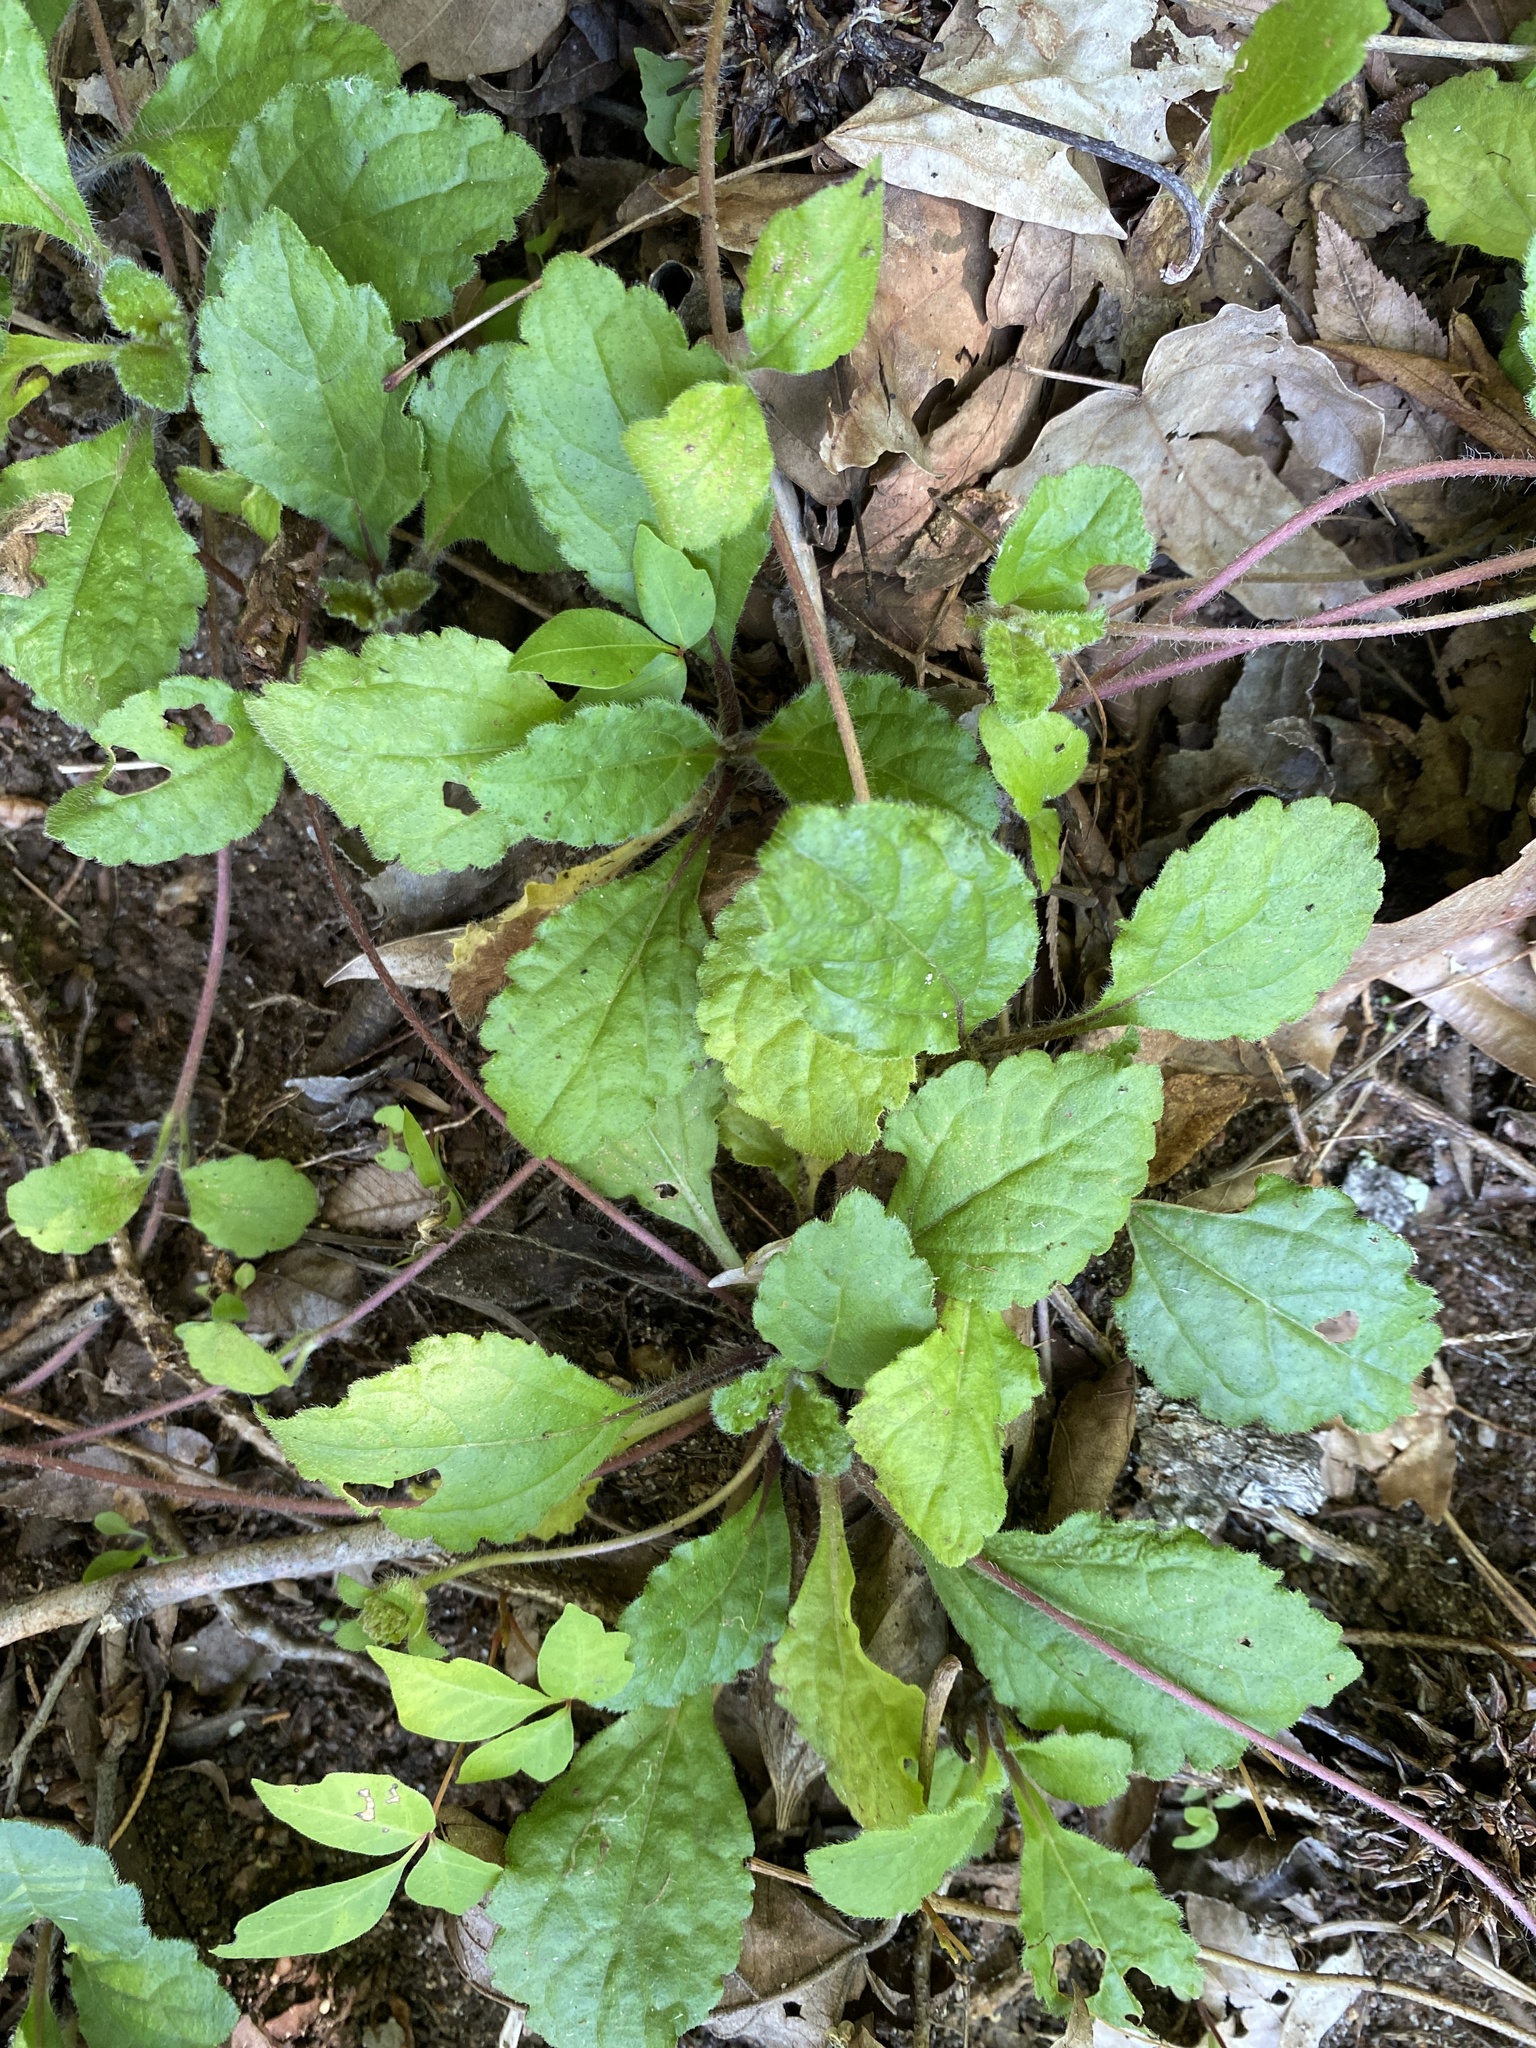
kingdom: Plantae
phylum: Tracheophyta
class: Magnoliopsida
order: Asterales
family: Asteraceae
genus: Chrysogonum
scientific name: Chrysogonum australe
